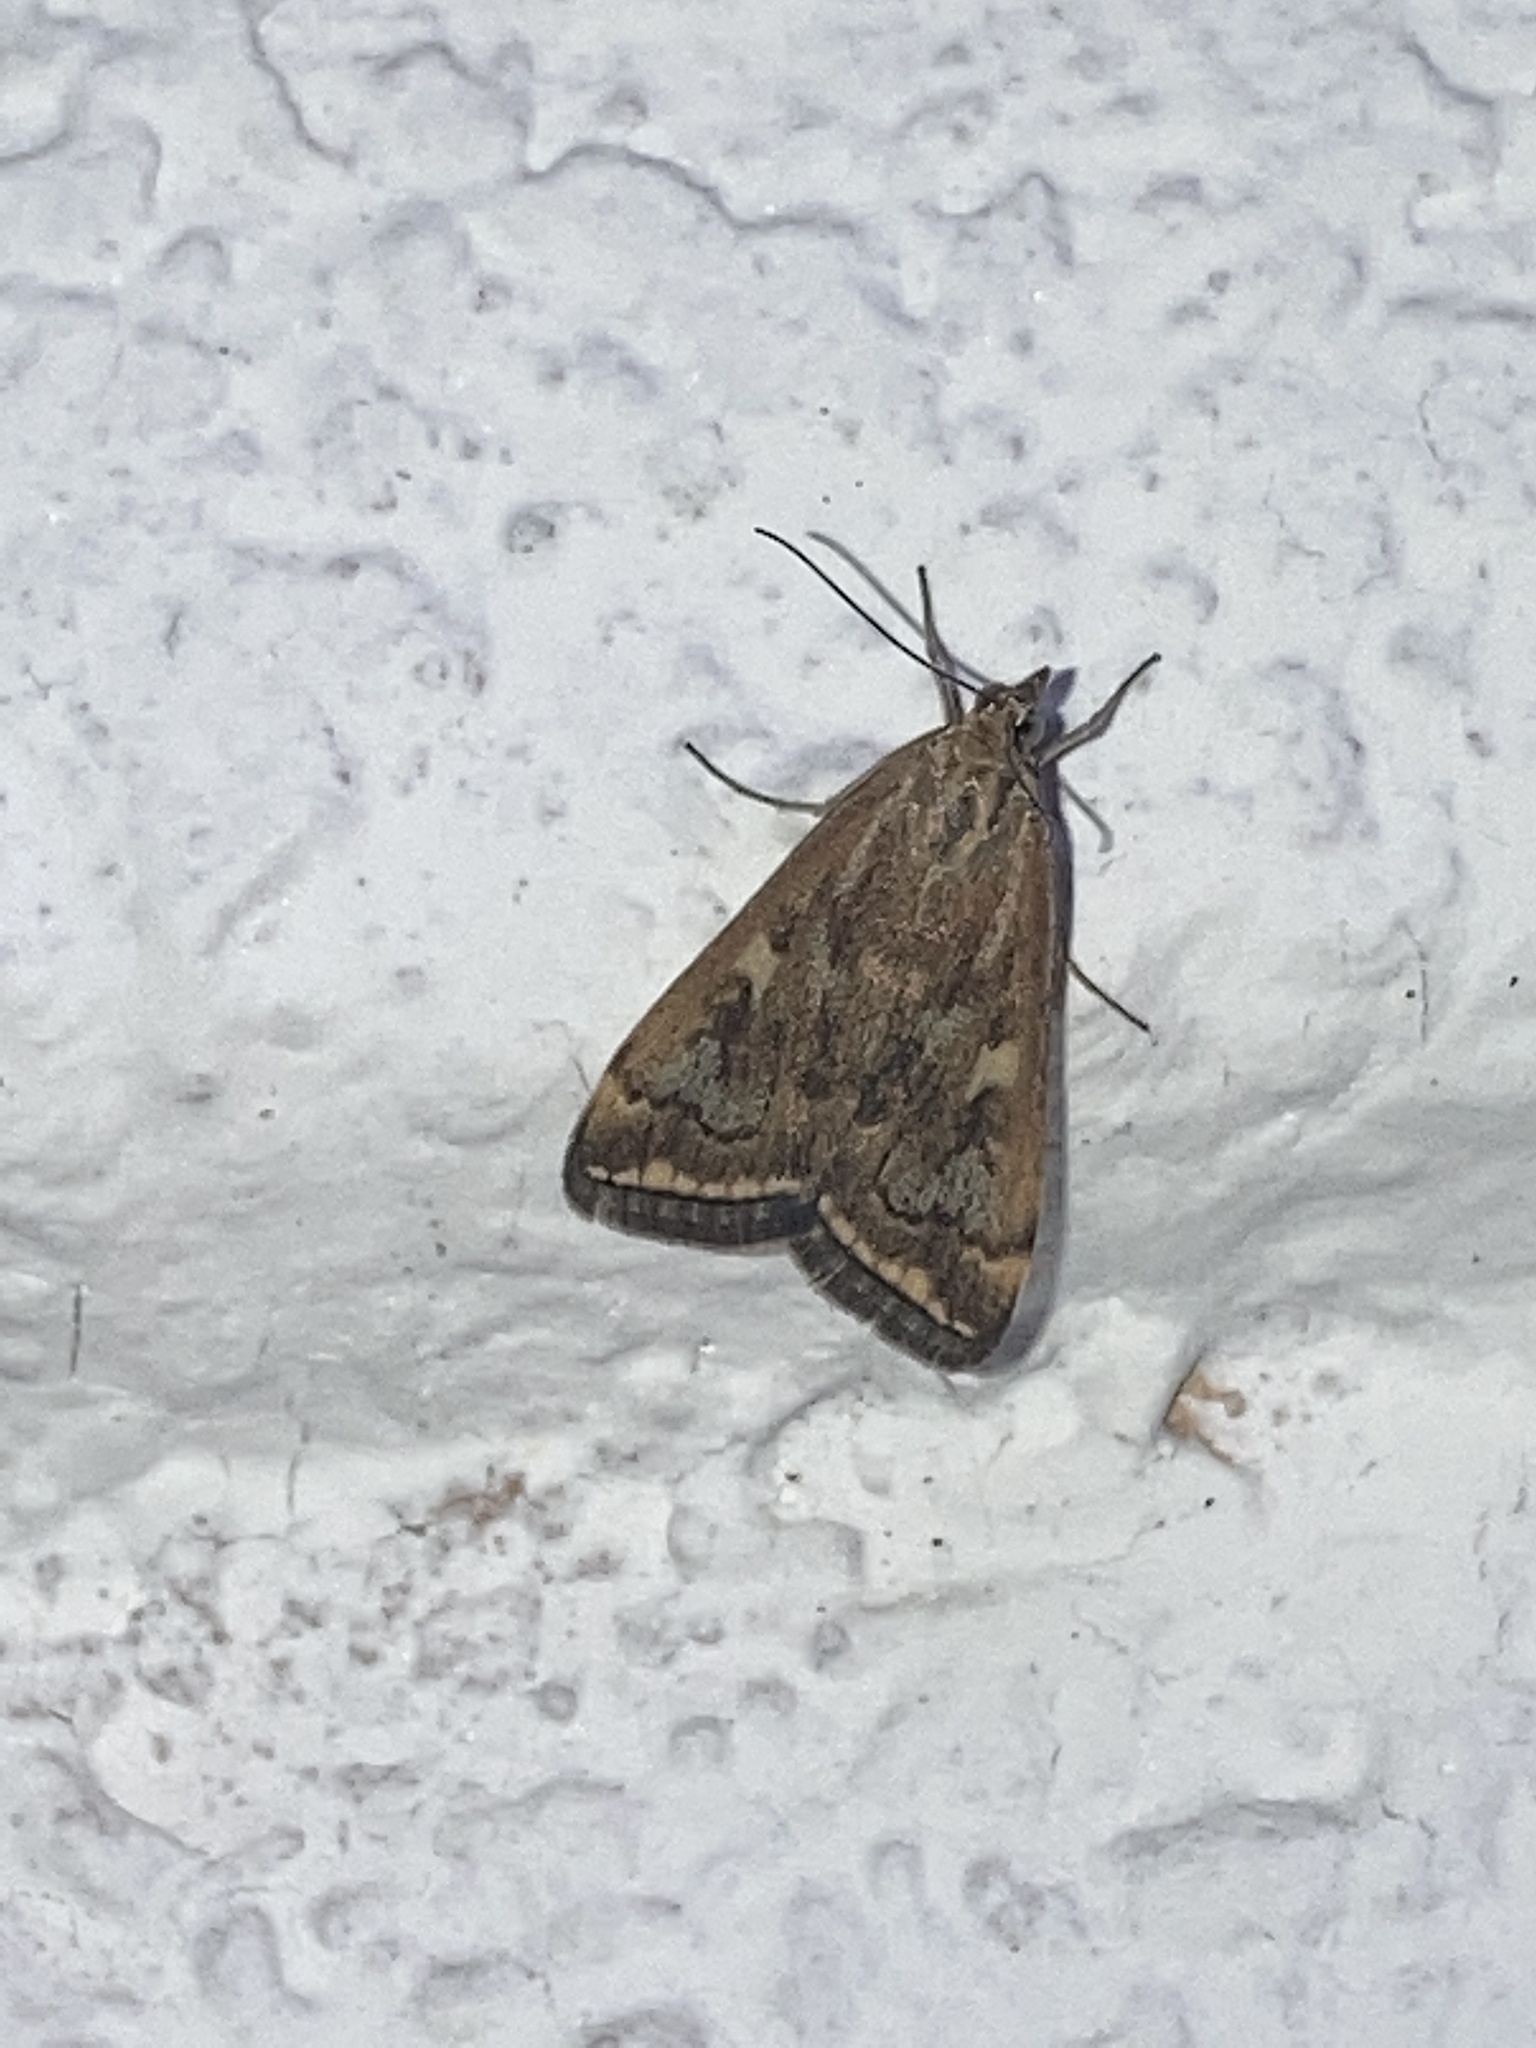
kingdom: Animalia
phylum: Arthropoda
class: Insecta
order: Lepidoptera
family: Crambidae
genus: Loxostege
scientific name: Loxostege sticticalis
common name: Crambid moth
